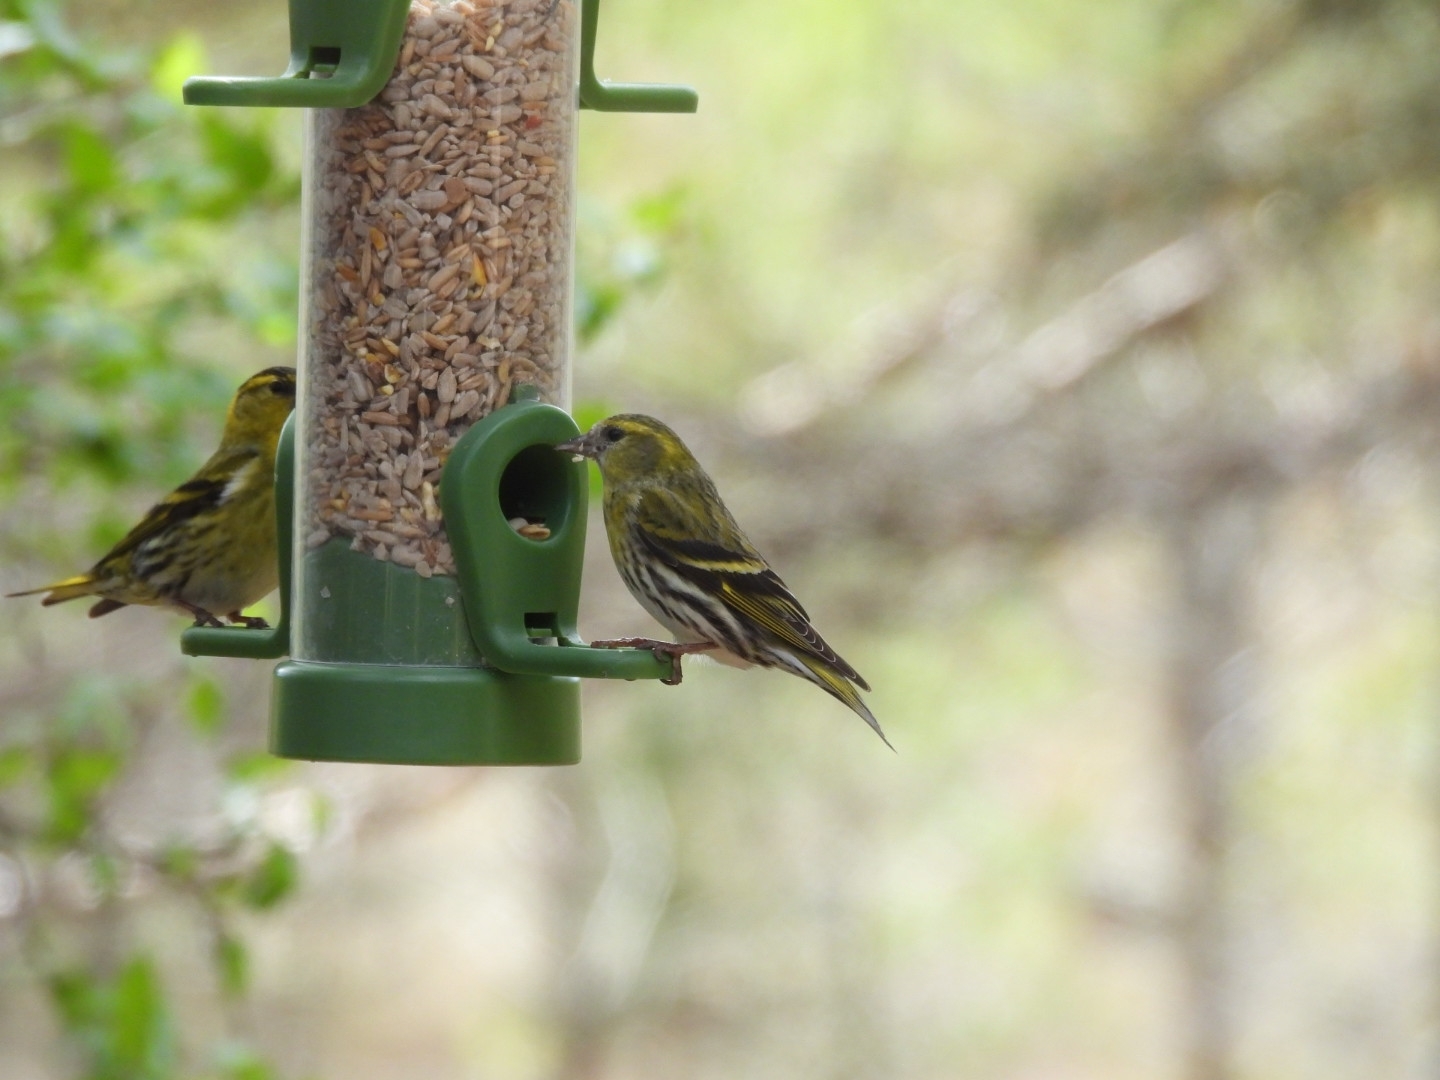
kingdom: Animalia
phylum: Chordata
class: Aves
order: Passeriformes
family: Fringillidae
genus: Spinus
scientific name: Spinus spinus
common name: Eurasian siskin
